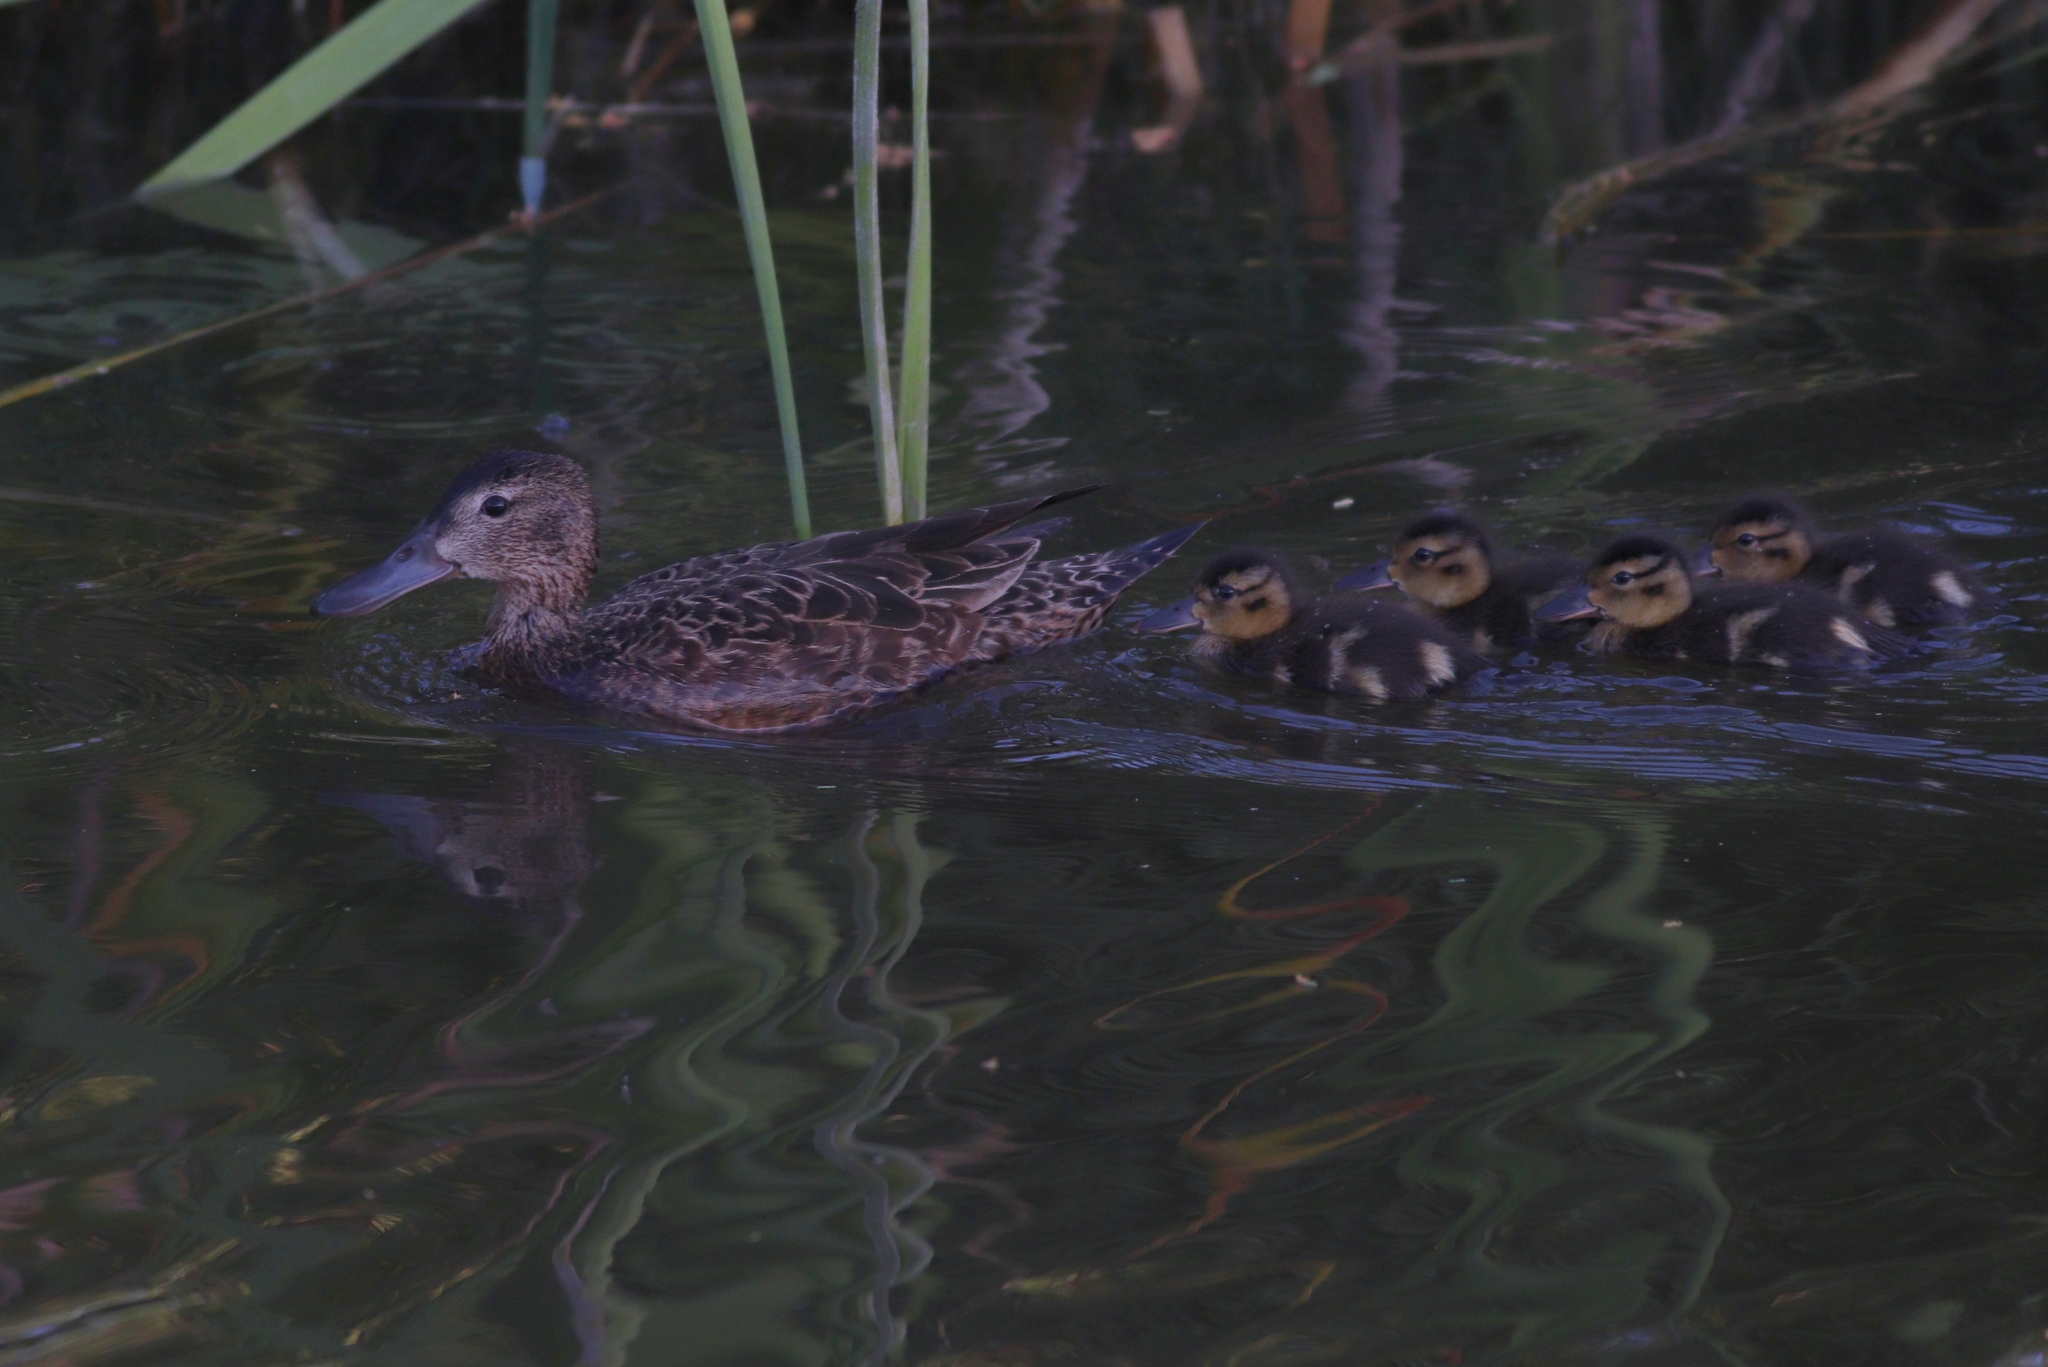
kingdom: Animalia
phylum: Chordata
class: Aves
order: Anseriformes
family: Anatidae
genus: Spatula
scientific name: Spatula platalea
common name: Red shoveler
